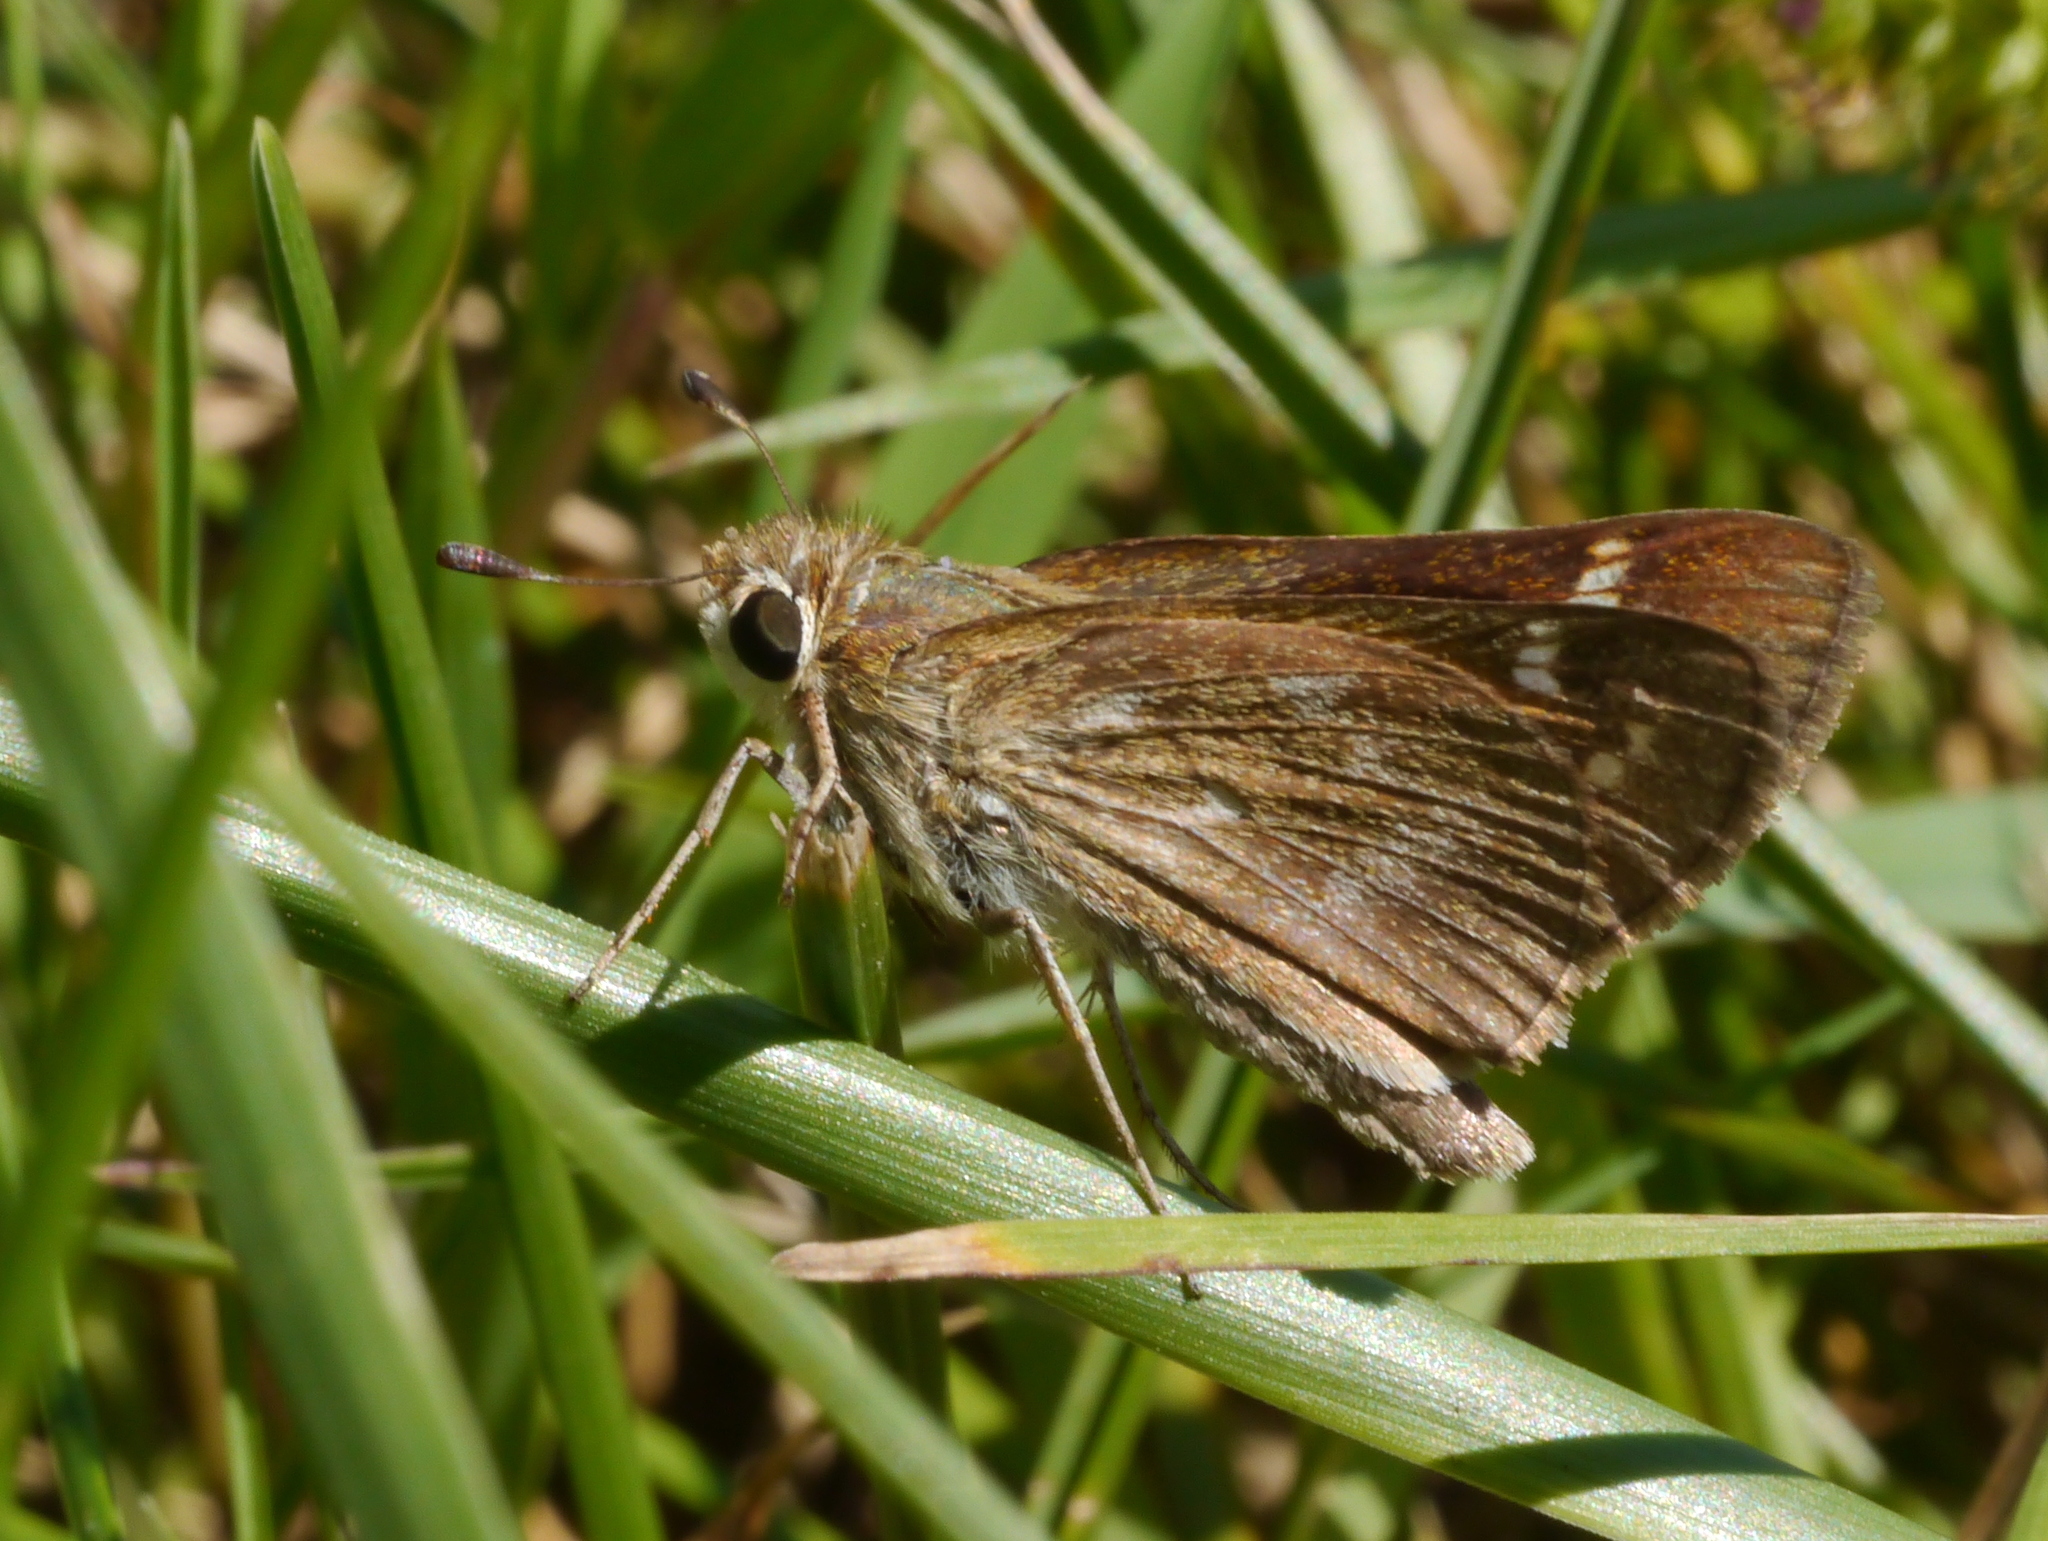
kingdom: Animalia
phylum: Arthropoda
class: Insecta
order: Lepidoptera
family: Hesperiidae
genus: Atalopedes
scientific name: Atalopedes
